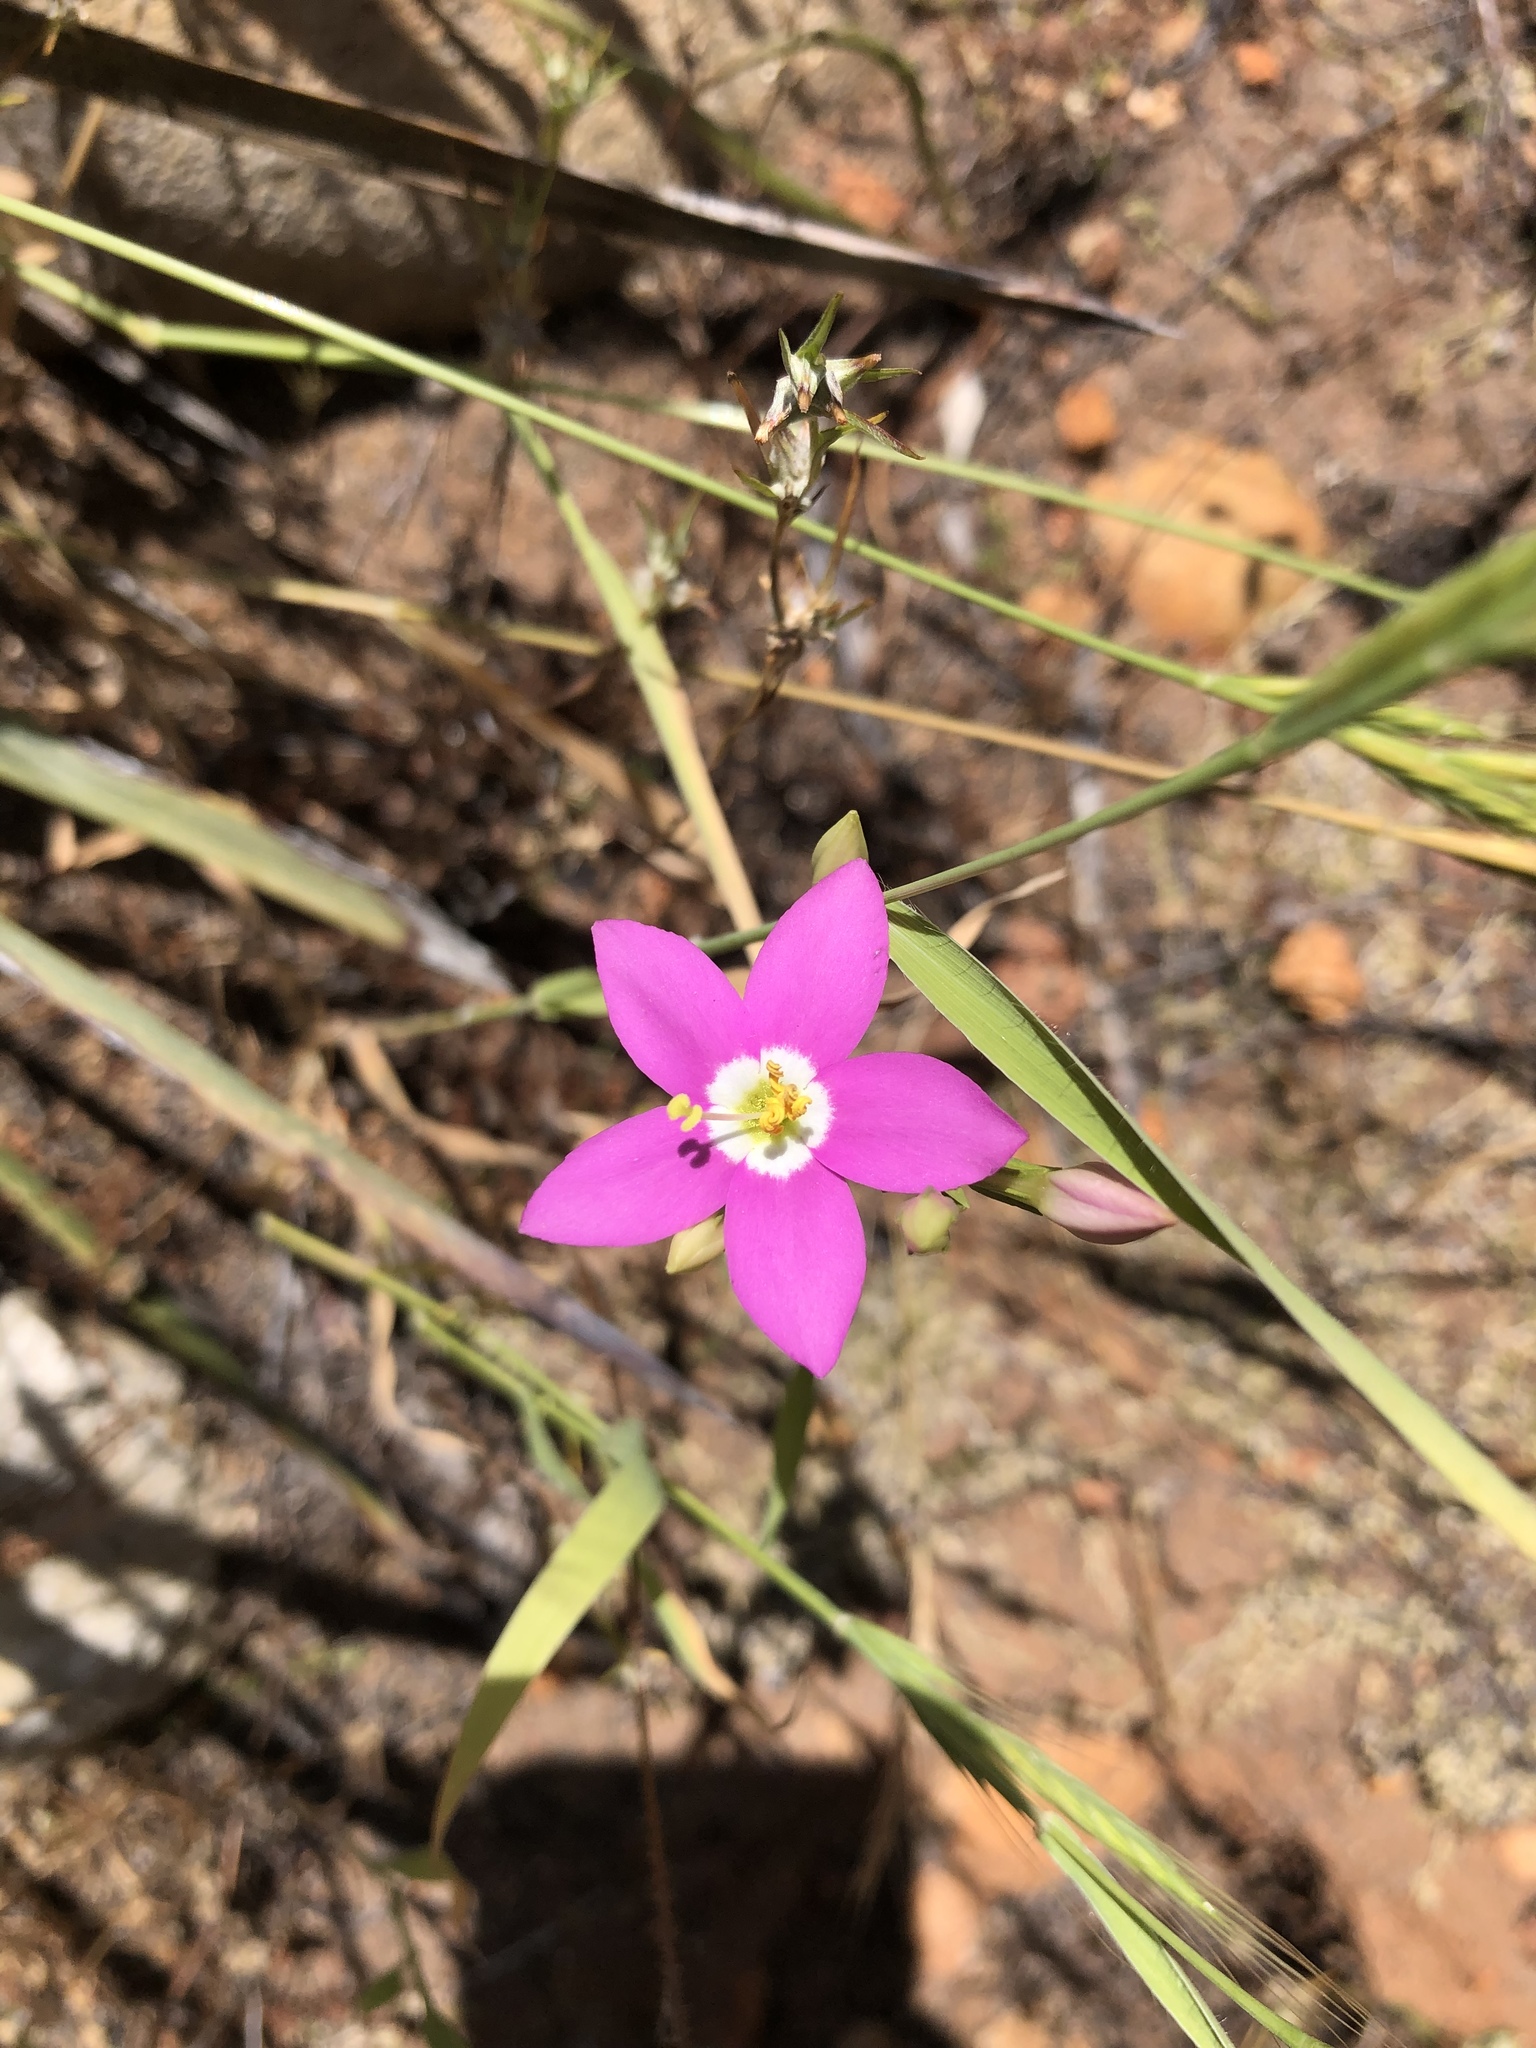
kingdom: Plantae
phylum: Tracheophyta
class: Magnoliopsida
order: Gentianales
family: Gentianaceae
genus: Zeltnera
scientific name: Zeltnera venusta
